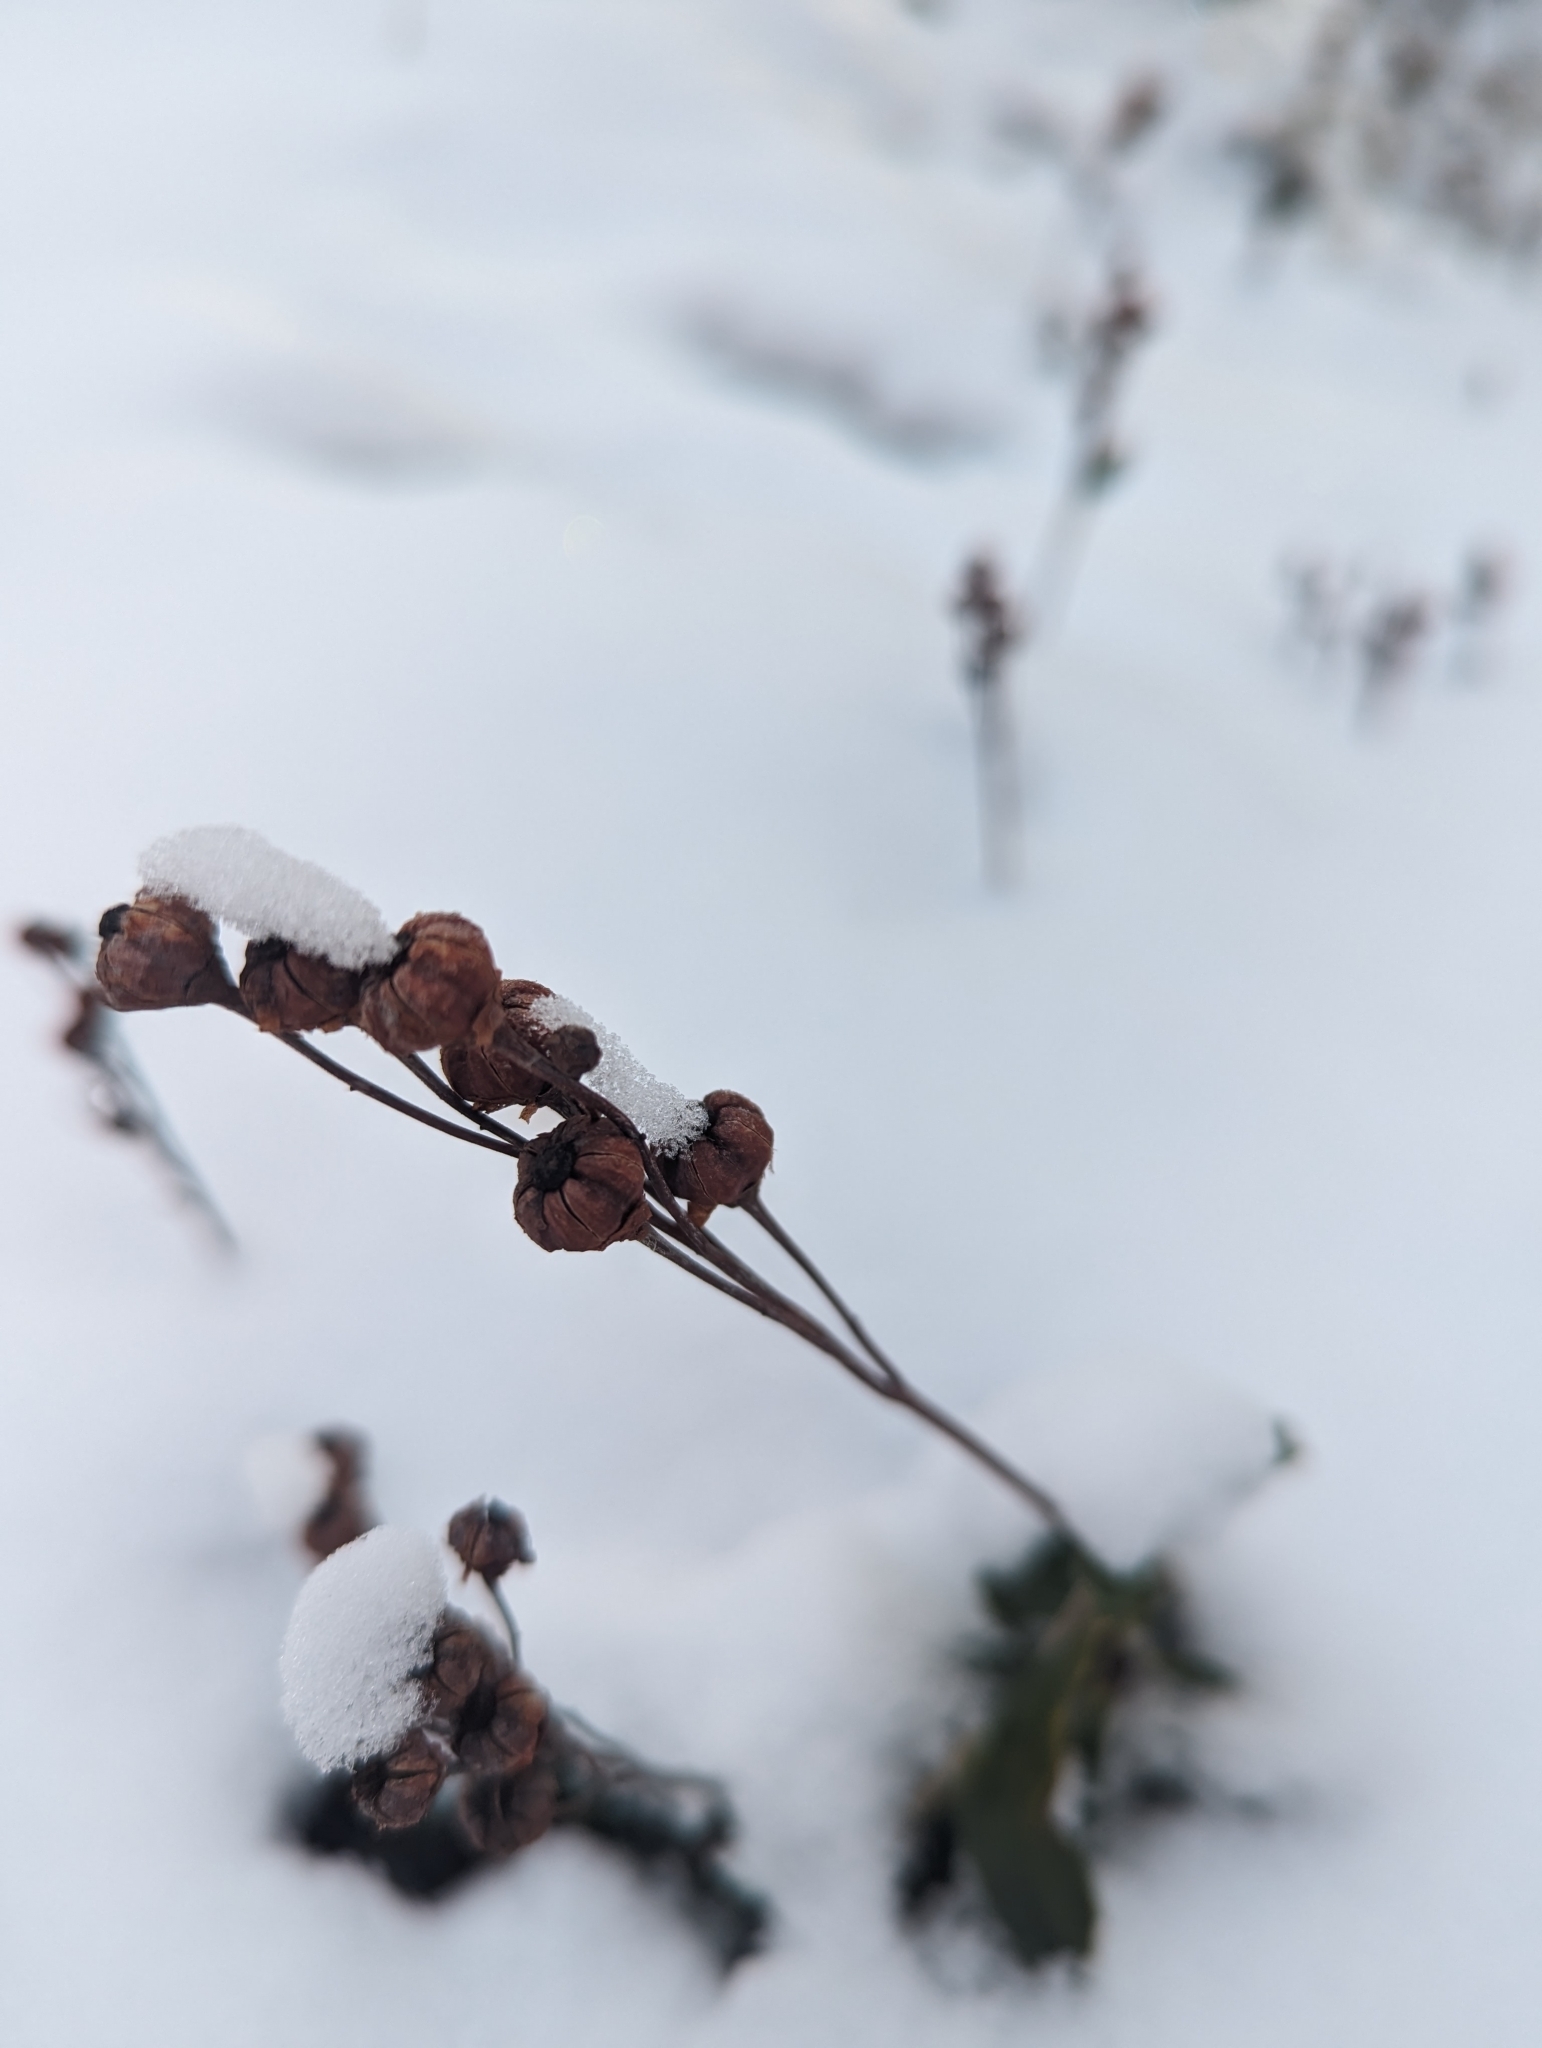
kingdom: Plantae
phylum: Tracheophyta
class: Magnoliopsida
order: Ericales
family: Ericaceae
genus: Chimaphila
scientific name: Chimaphila umbellata
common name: Pipsissewa
